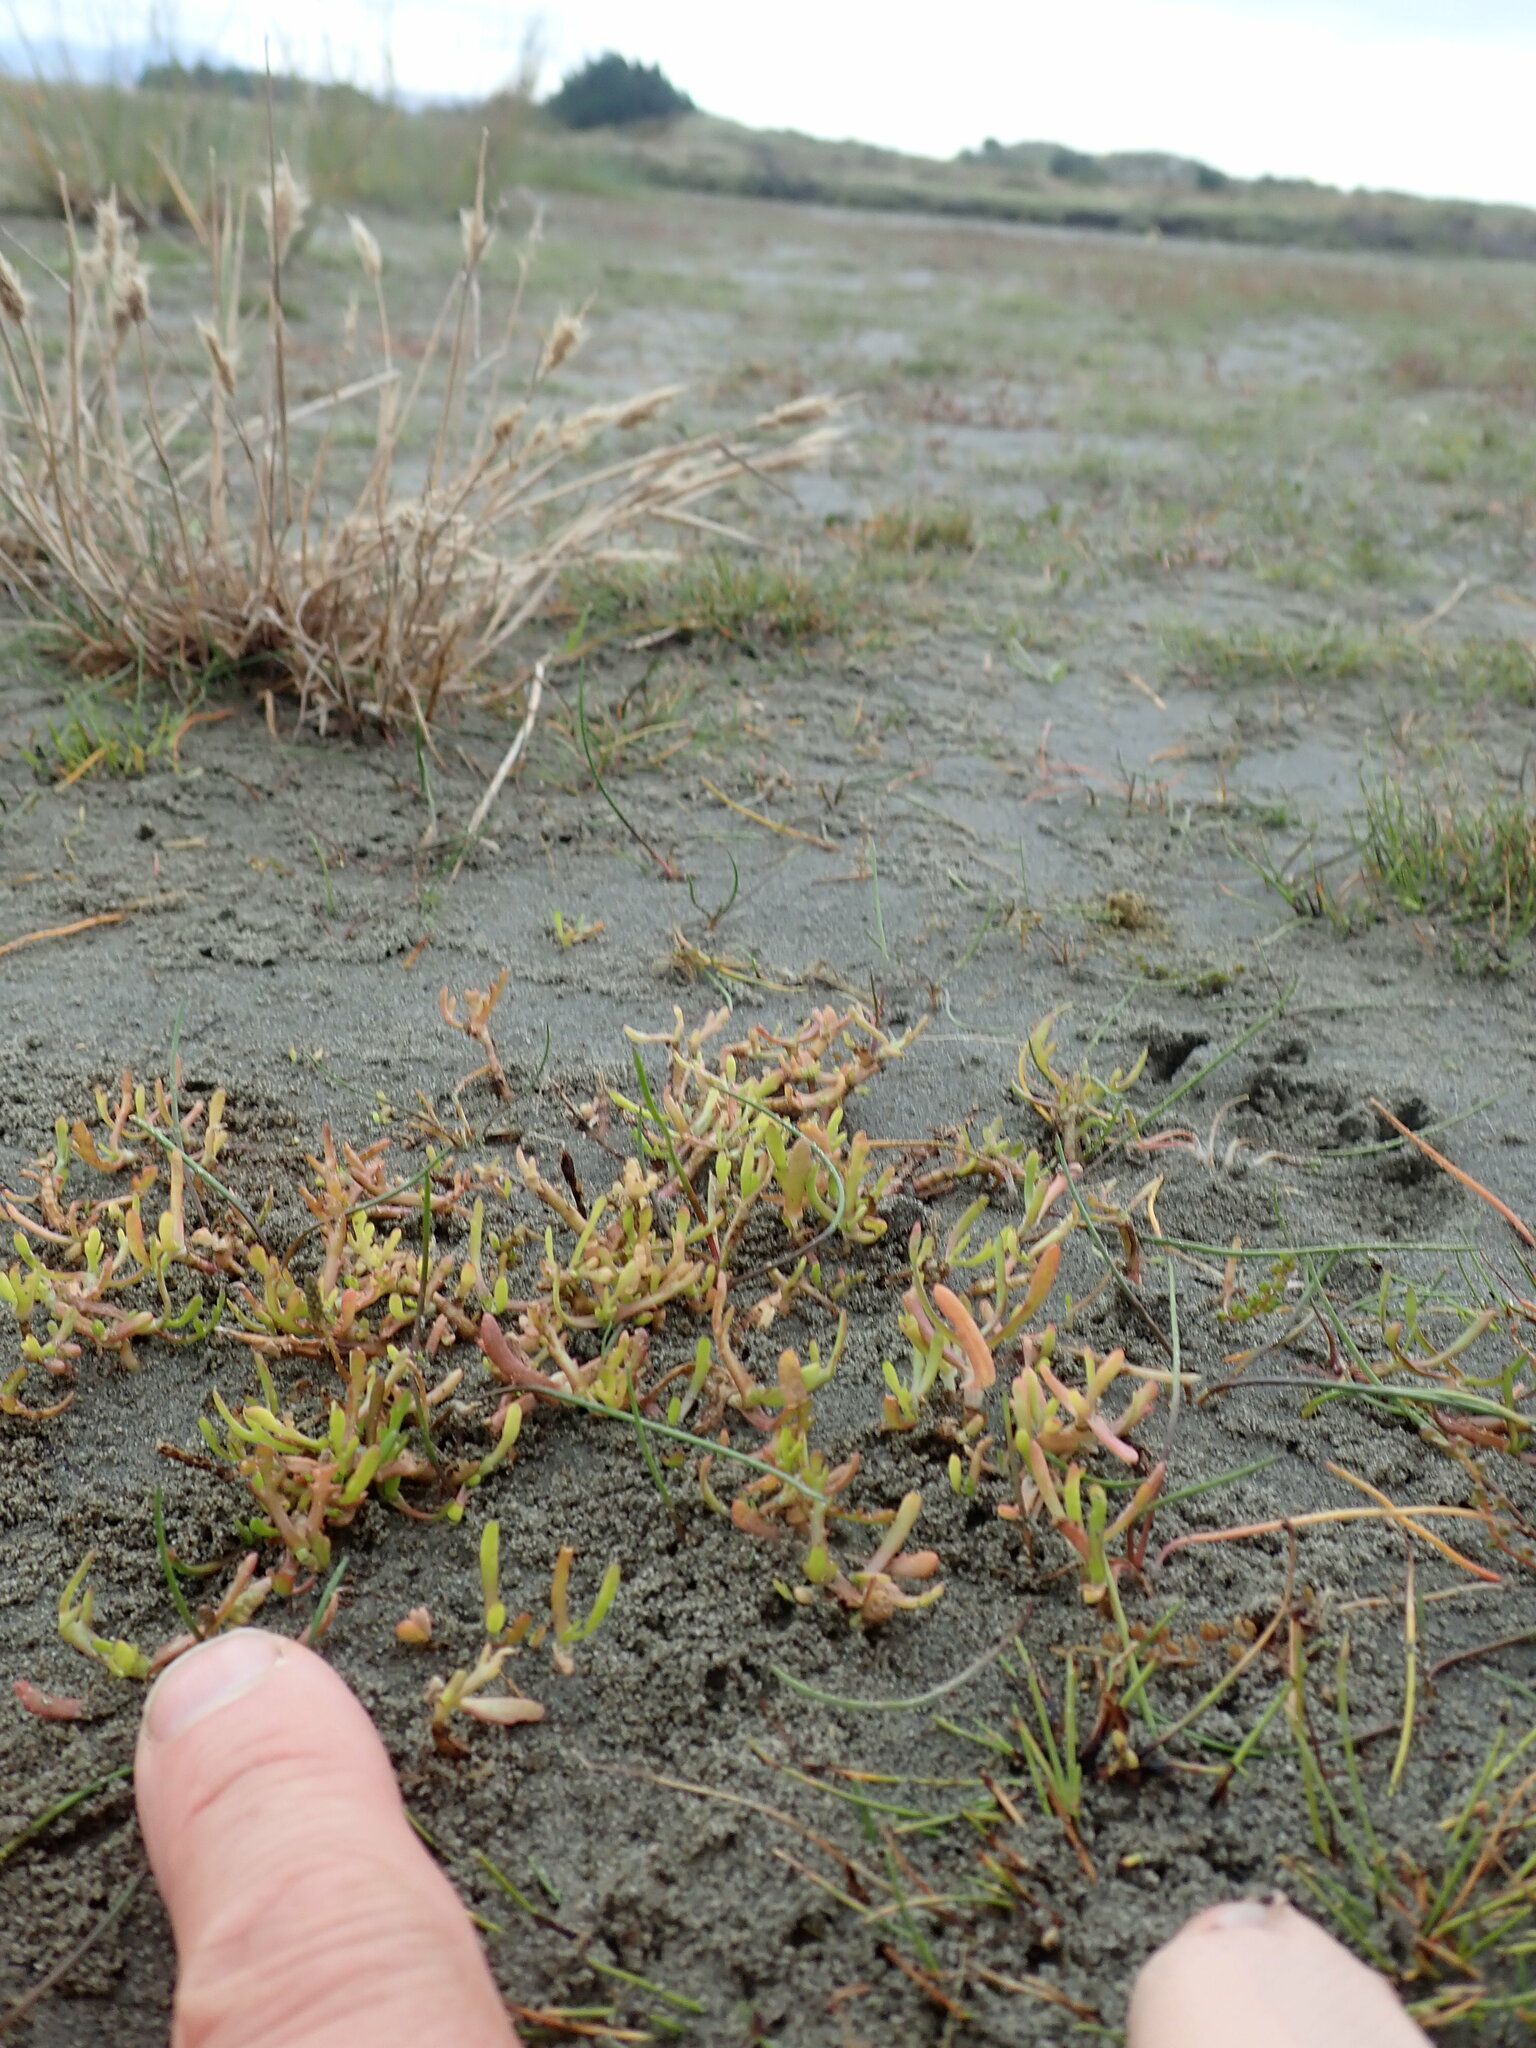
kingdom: Plantae
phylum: Tracheophyta
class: Magnoliopsida
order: Asterales
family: Asteraceae
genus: Cotula
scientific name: Cotula coronopifolia
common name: Buttonweed
